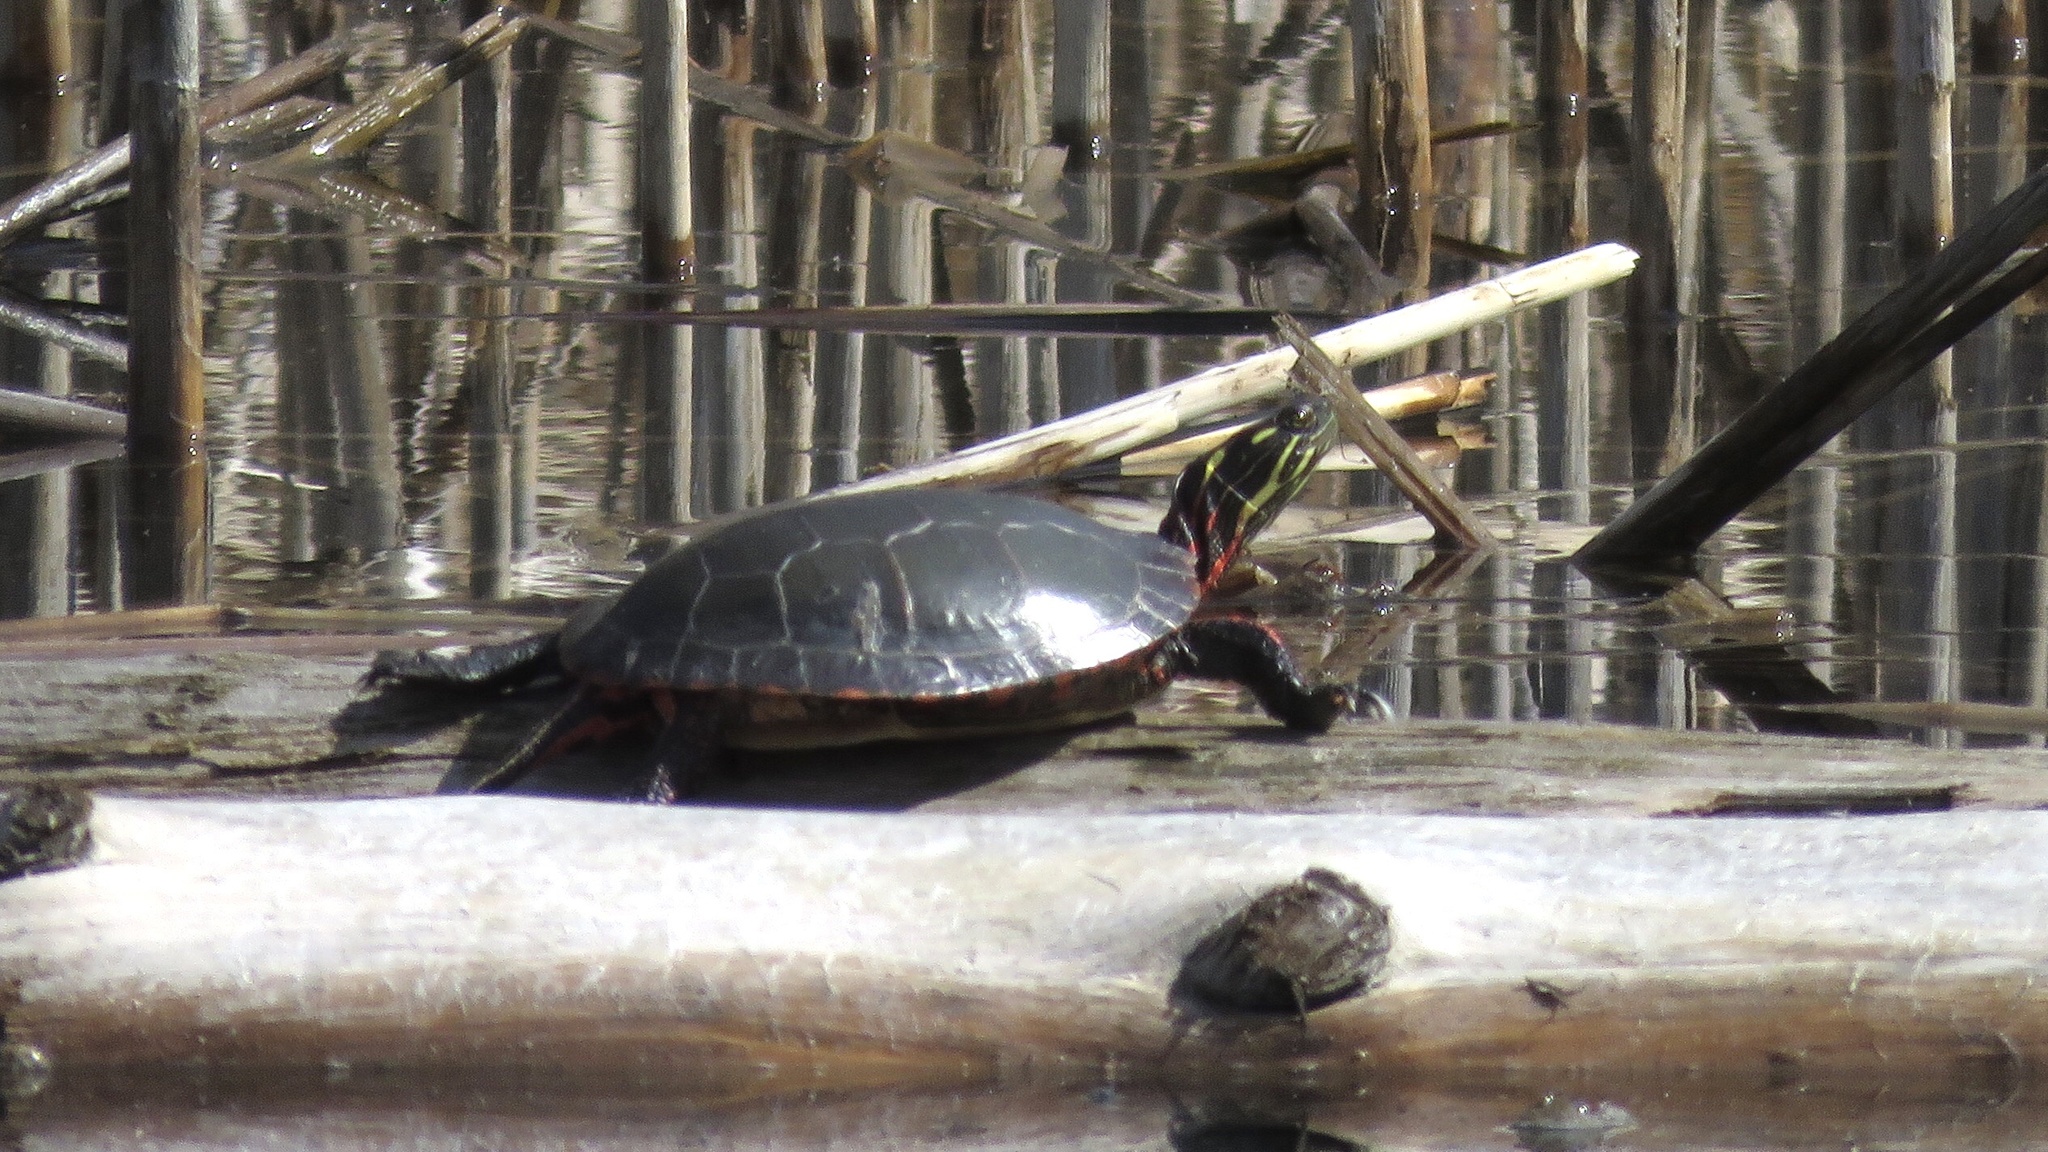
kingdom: Animalia
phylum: Chordata
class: Testudines
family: Emydidae
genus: Chrysemys
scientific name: Chrysemys picta
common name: Painted turtle
